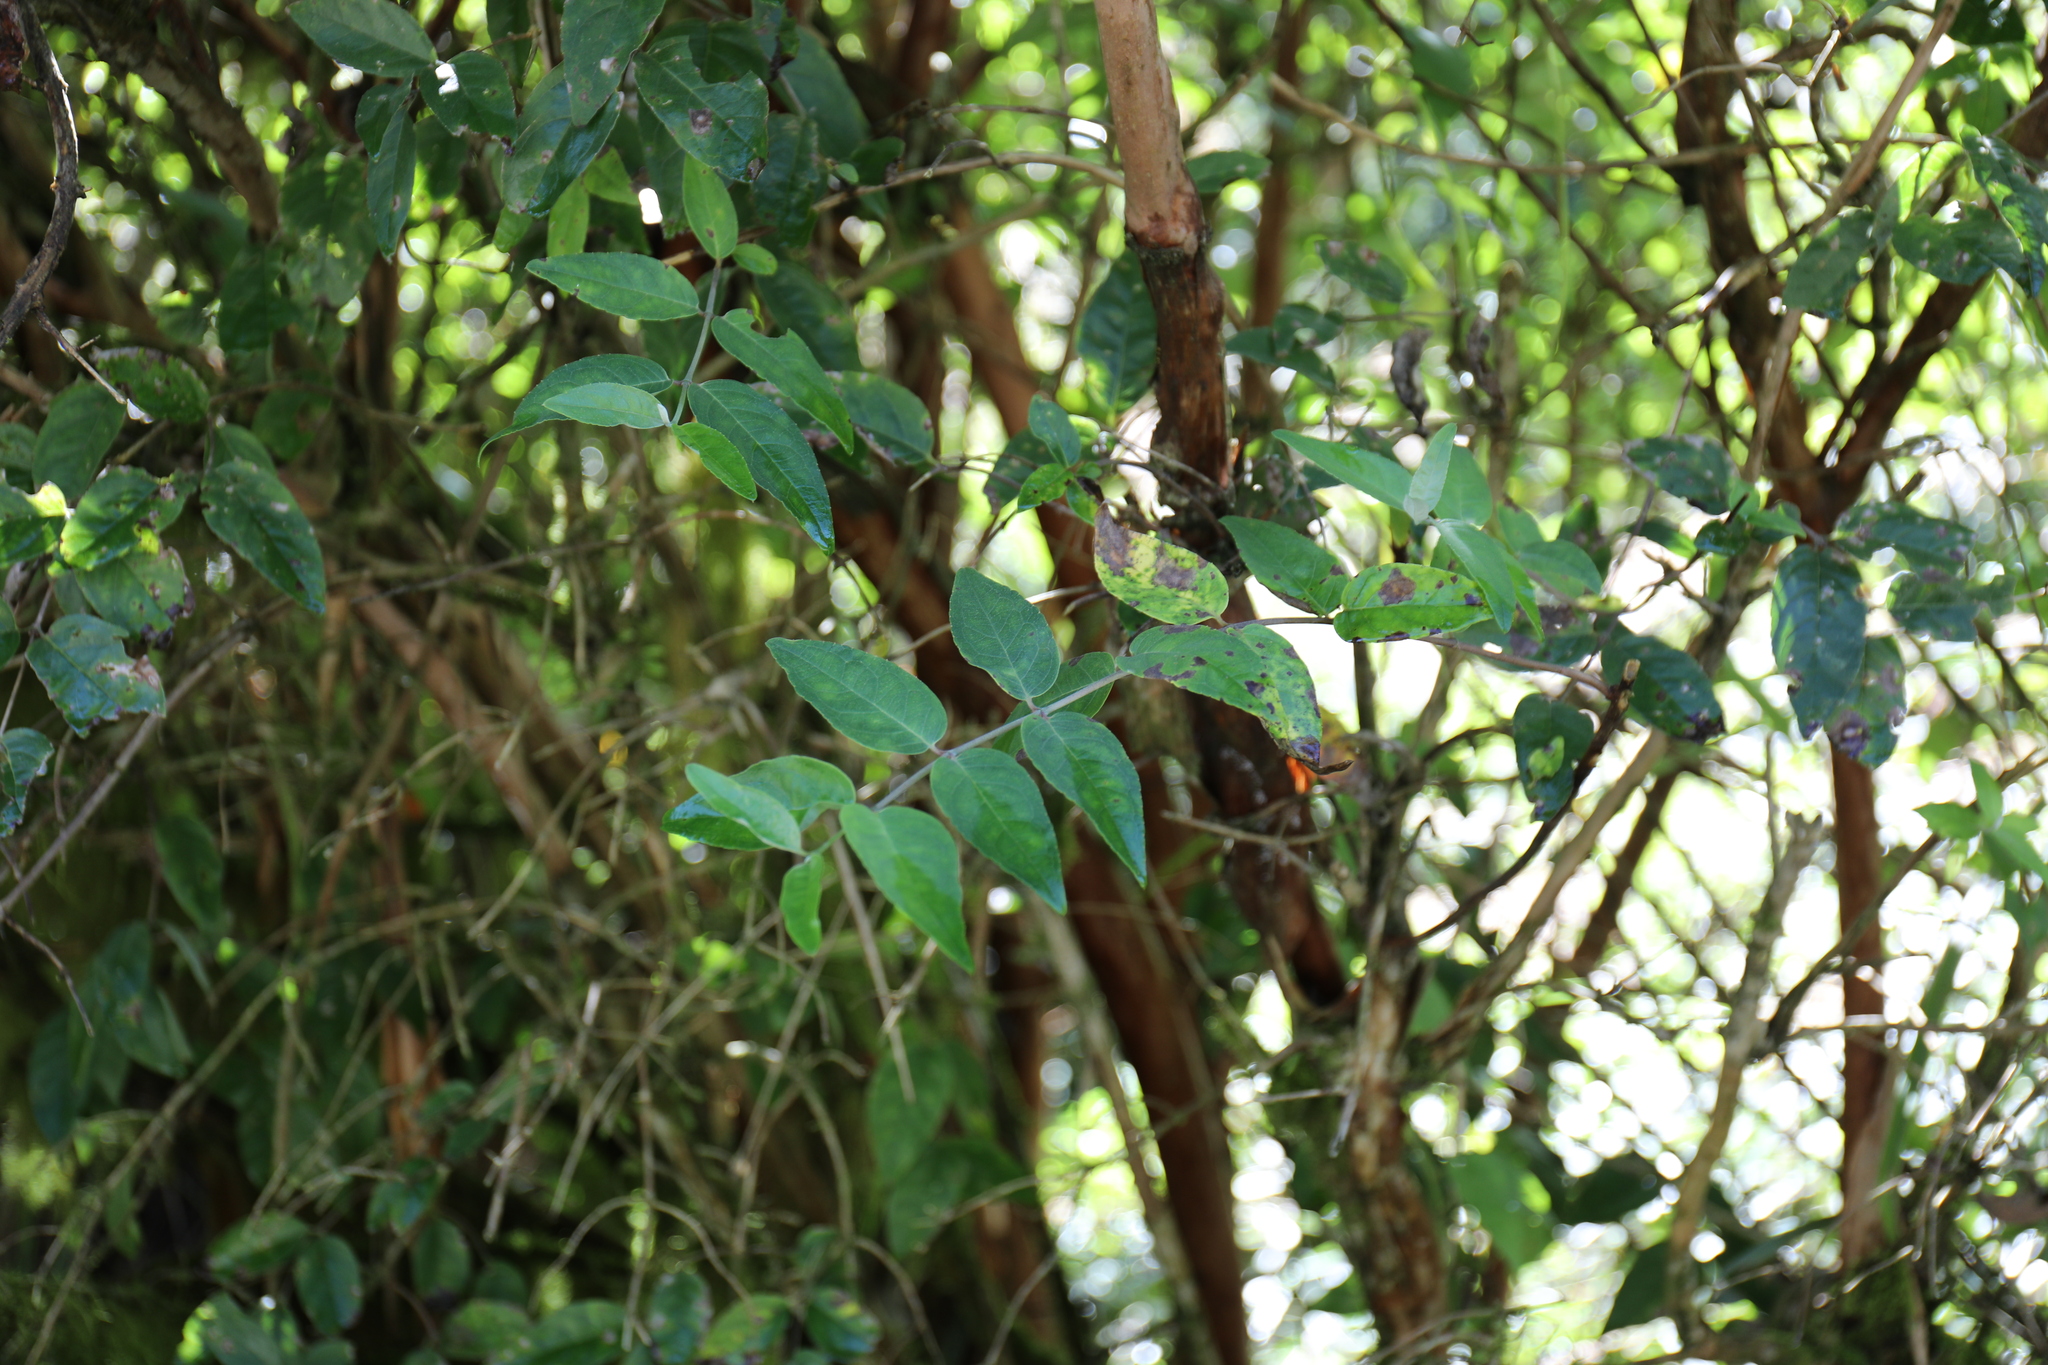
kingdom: Plantae
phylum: Tracheophyta
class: Magnoliopsida
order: Cornales
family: Hydrangeaceae
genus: Deutzia
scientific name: Deutzia pulchra
